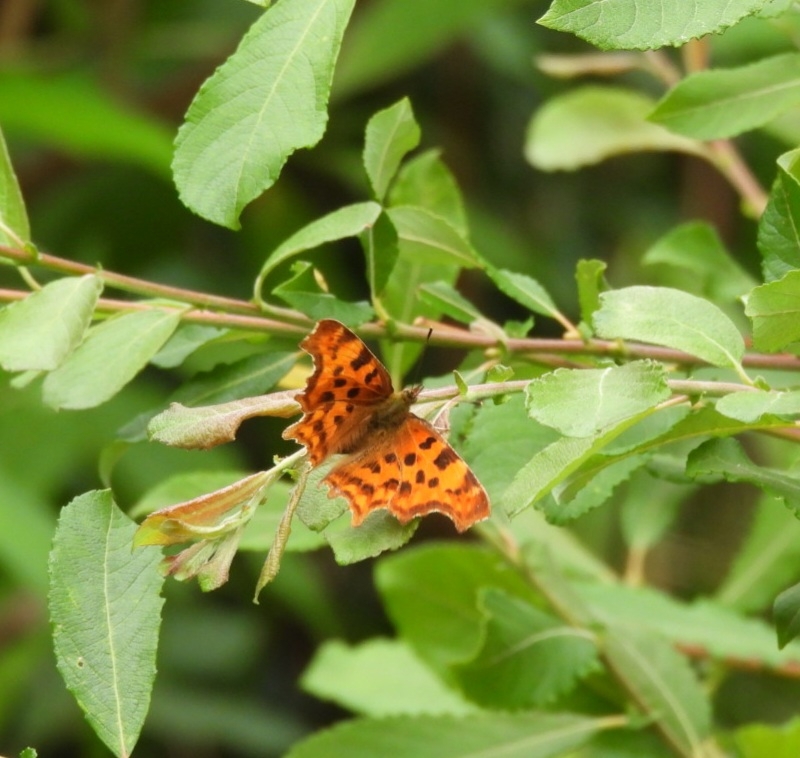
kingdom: Animalia
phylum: Arthropoda
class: Insecta
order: Lepidoptera
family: Nymphalidae
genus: Polygonia
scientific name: Polygonia c-album
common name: Comma
